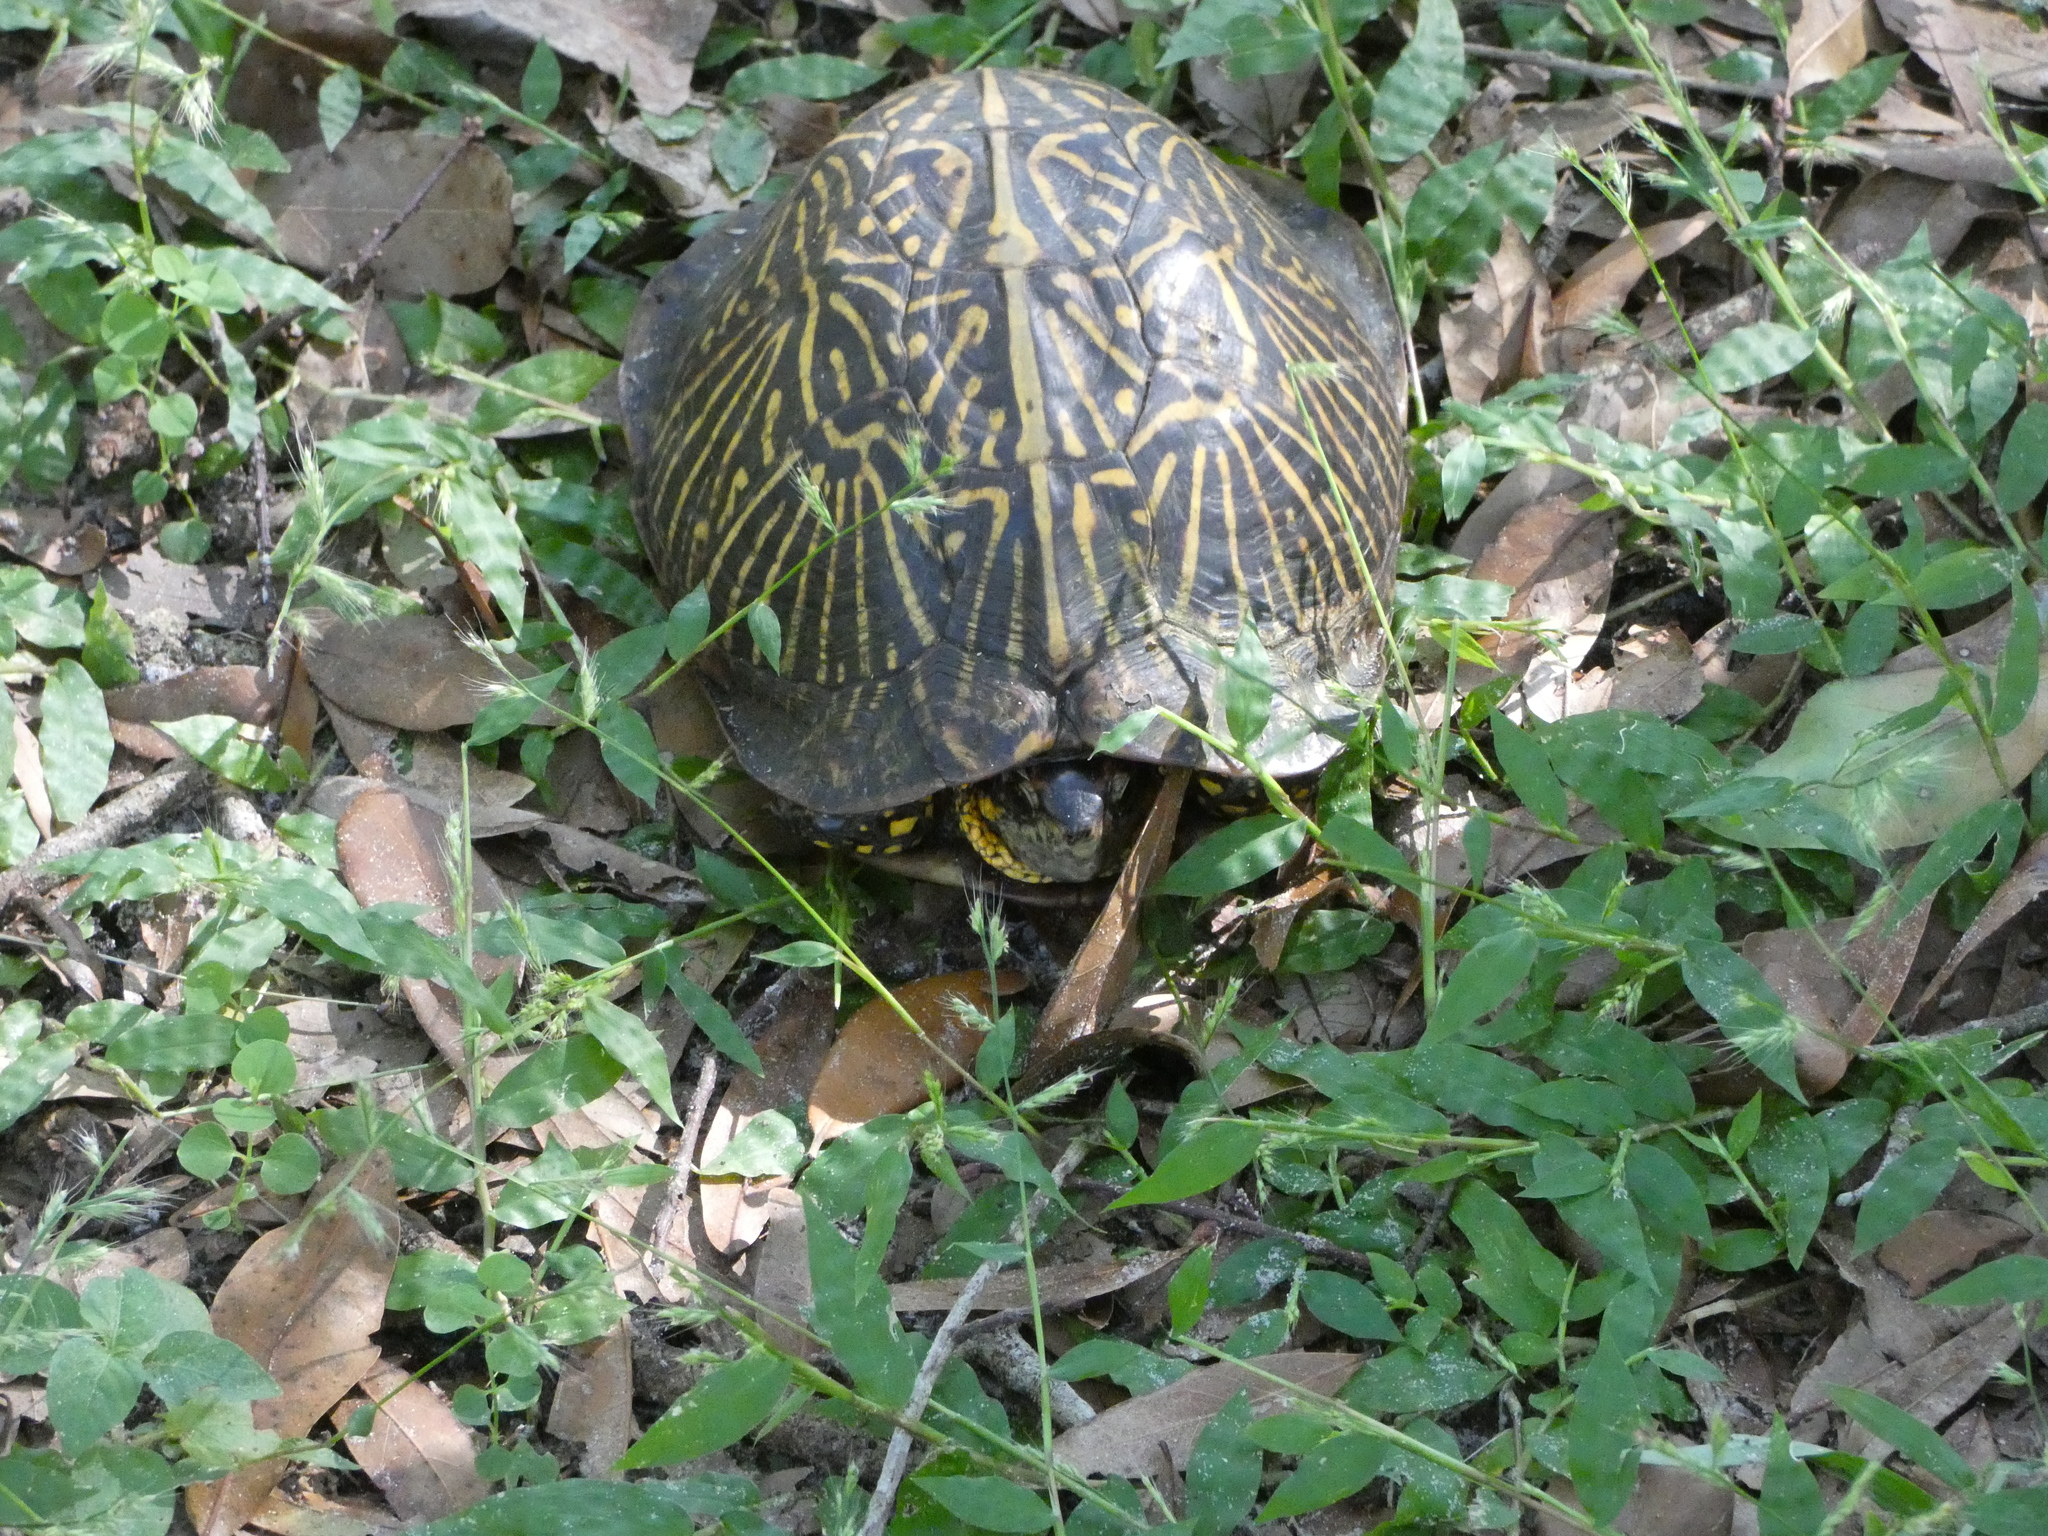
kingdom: Animalia
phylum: Chordata
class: Testudines
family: Emydidae
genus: Terrapene
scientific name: Terrapene carolina
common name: Common box turtle
